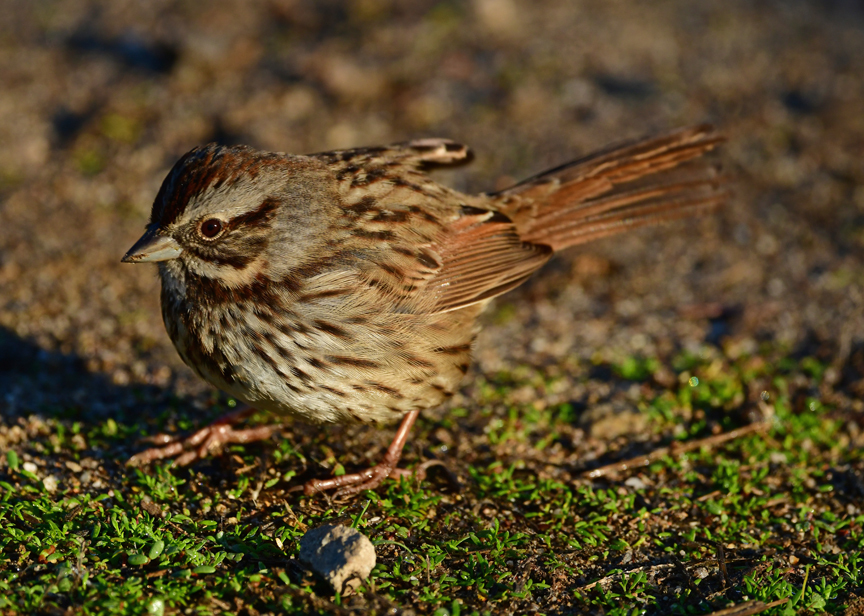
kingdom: Animalia
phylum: Chordata
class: Aves
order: Passeriformes
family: Passerellidae
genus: Melospiza
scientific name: Melospiza melodia
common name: Song sparrow
